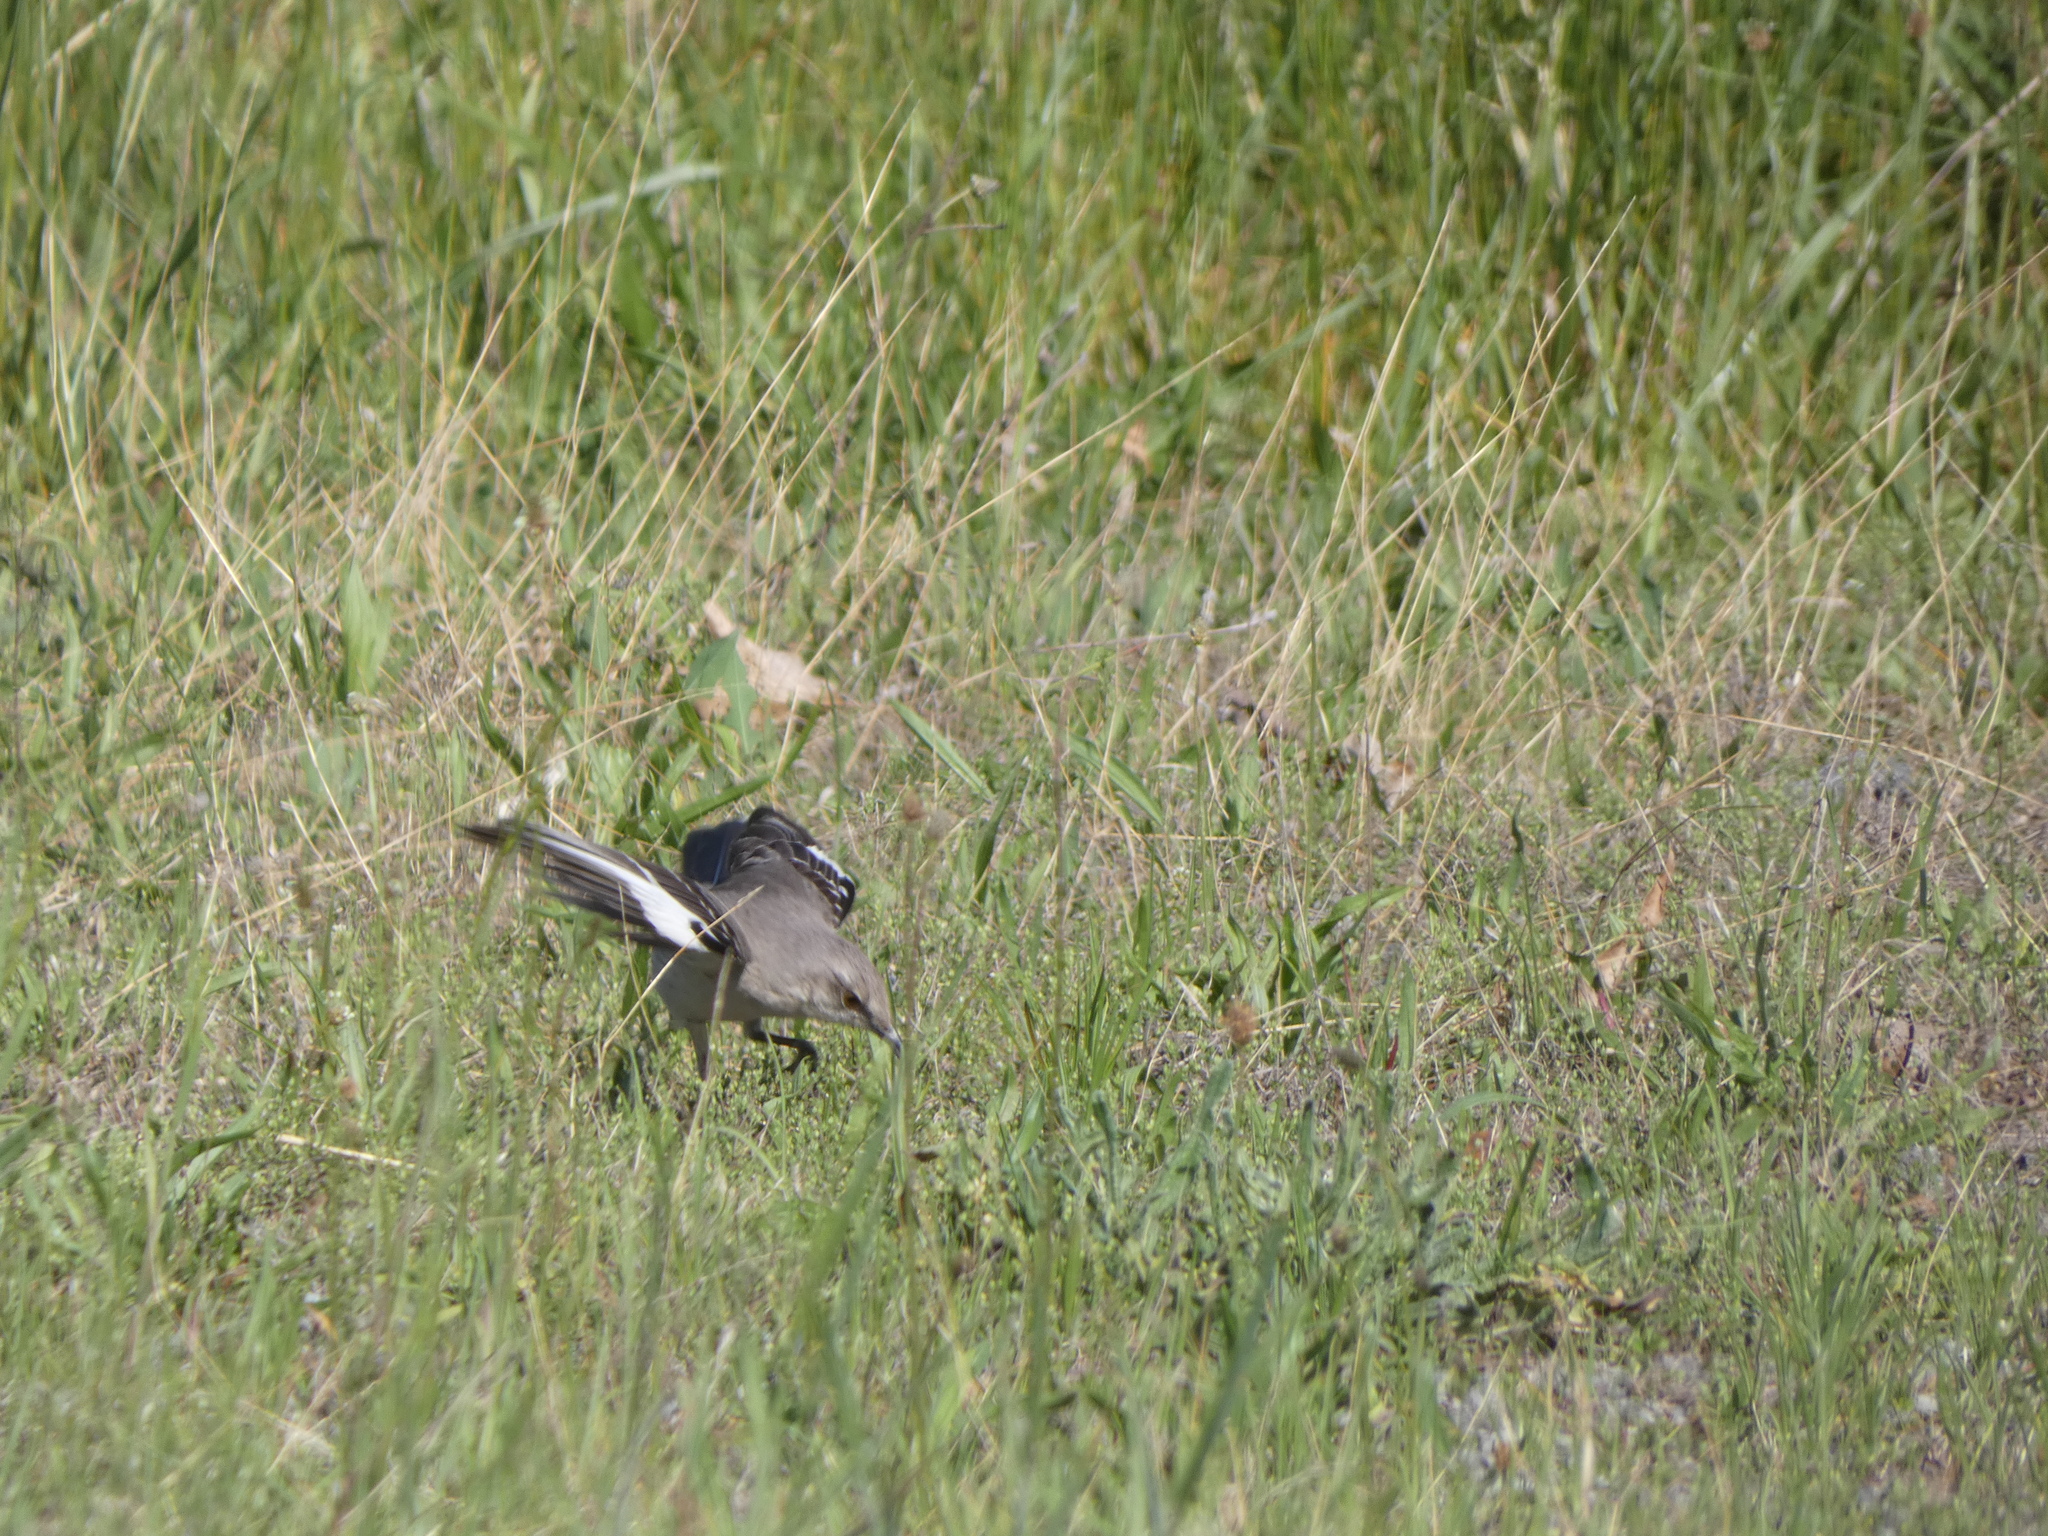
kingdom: Animalia
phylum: Chordata
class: Aves
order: Passeriformes
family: Mimidae
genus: Mimus
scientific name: Mimus polyglottos
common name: Northern mockingbird
